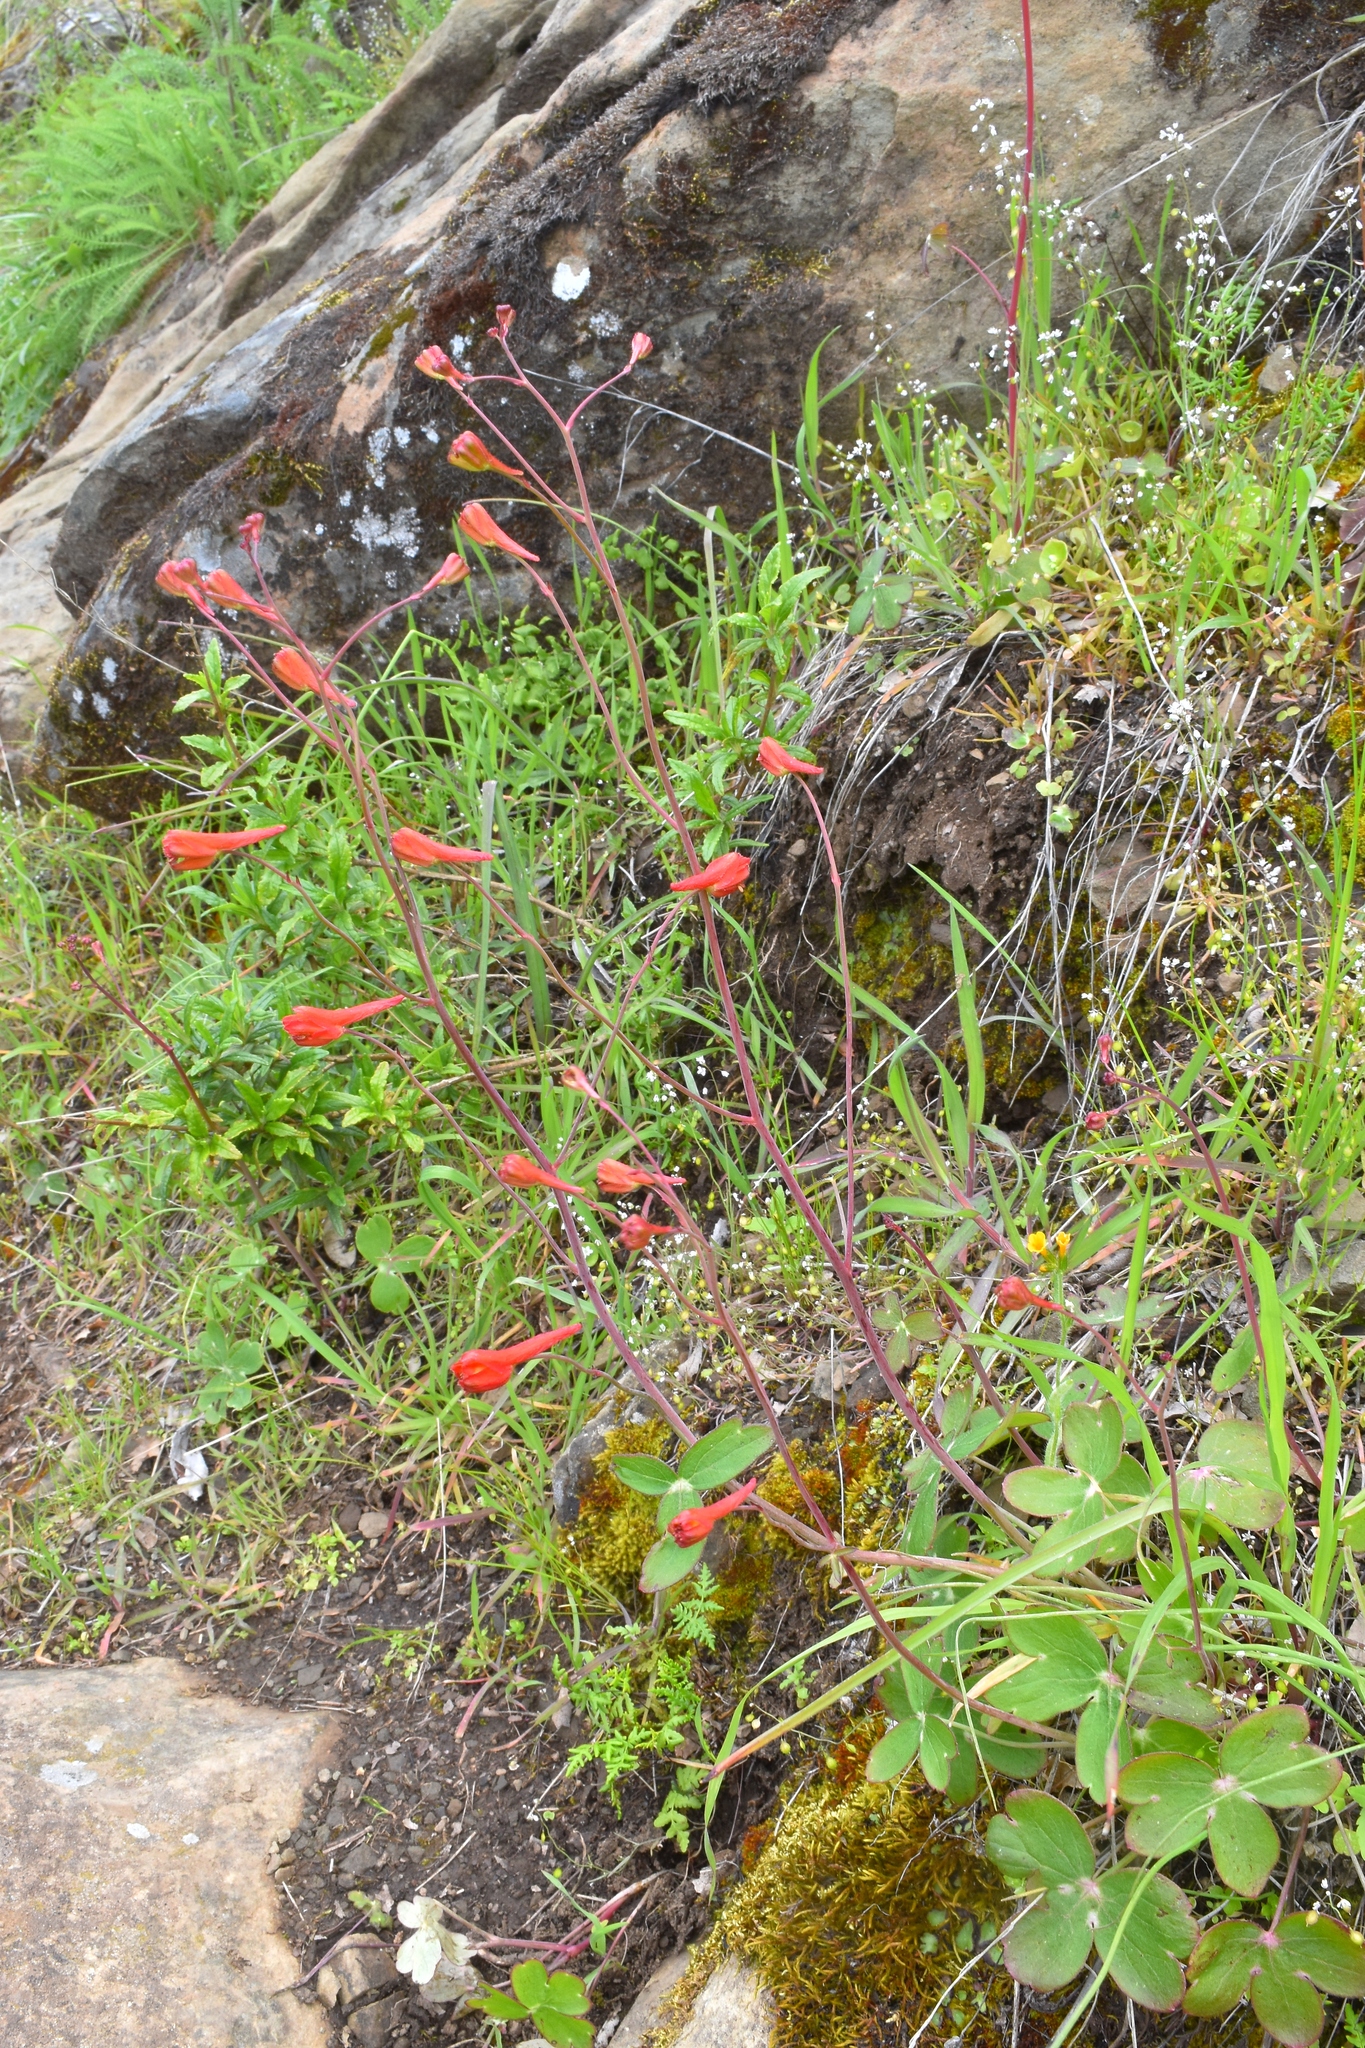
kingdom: Plantae
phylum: Tracheophyta
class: Magnoliopsida
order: Ranunculales
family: Ranunculaceae
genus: Delphinium
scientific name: Delphinium nudicaule
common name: Red larkspur
